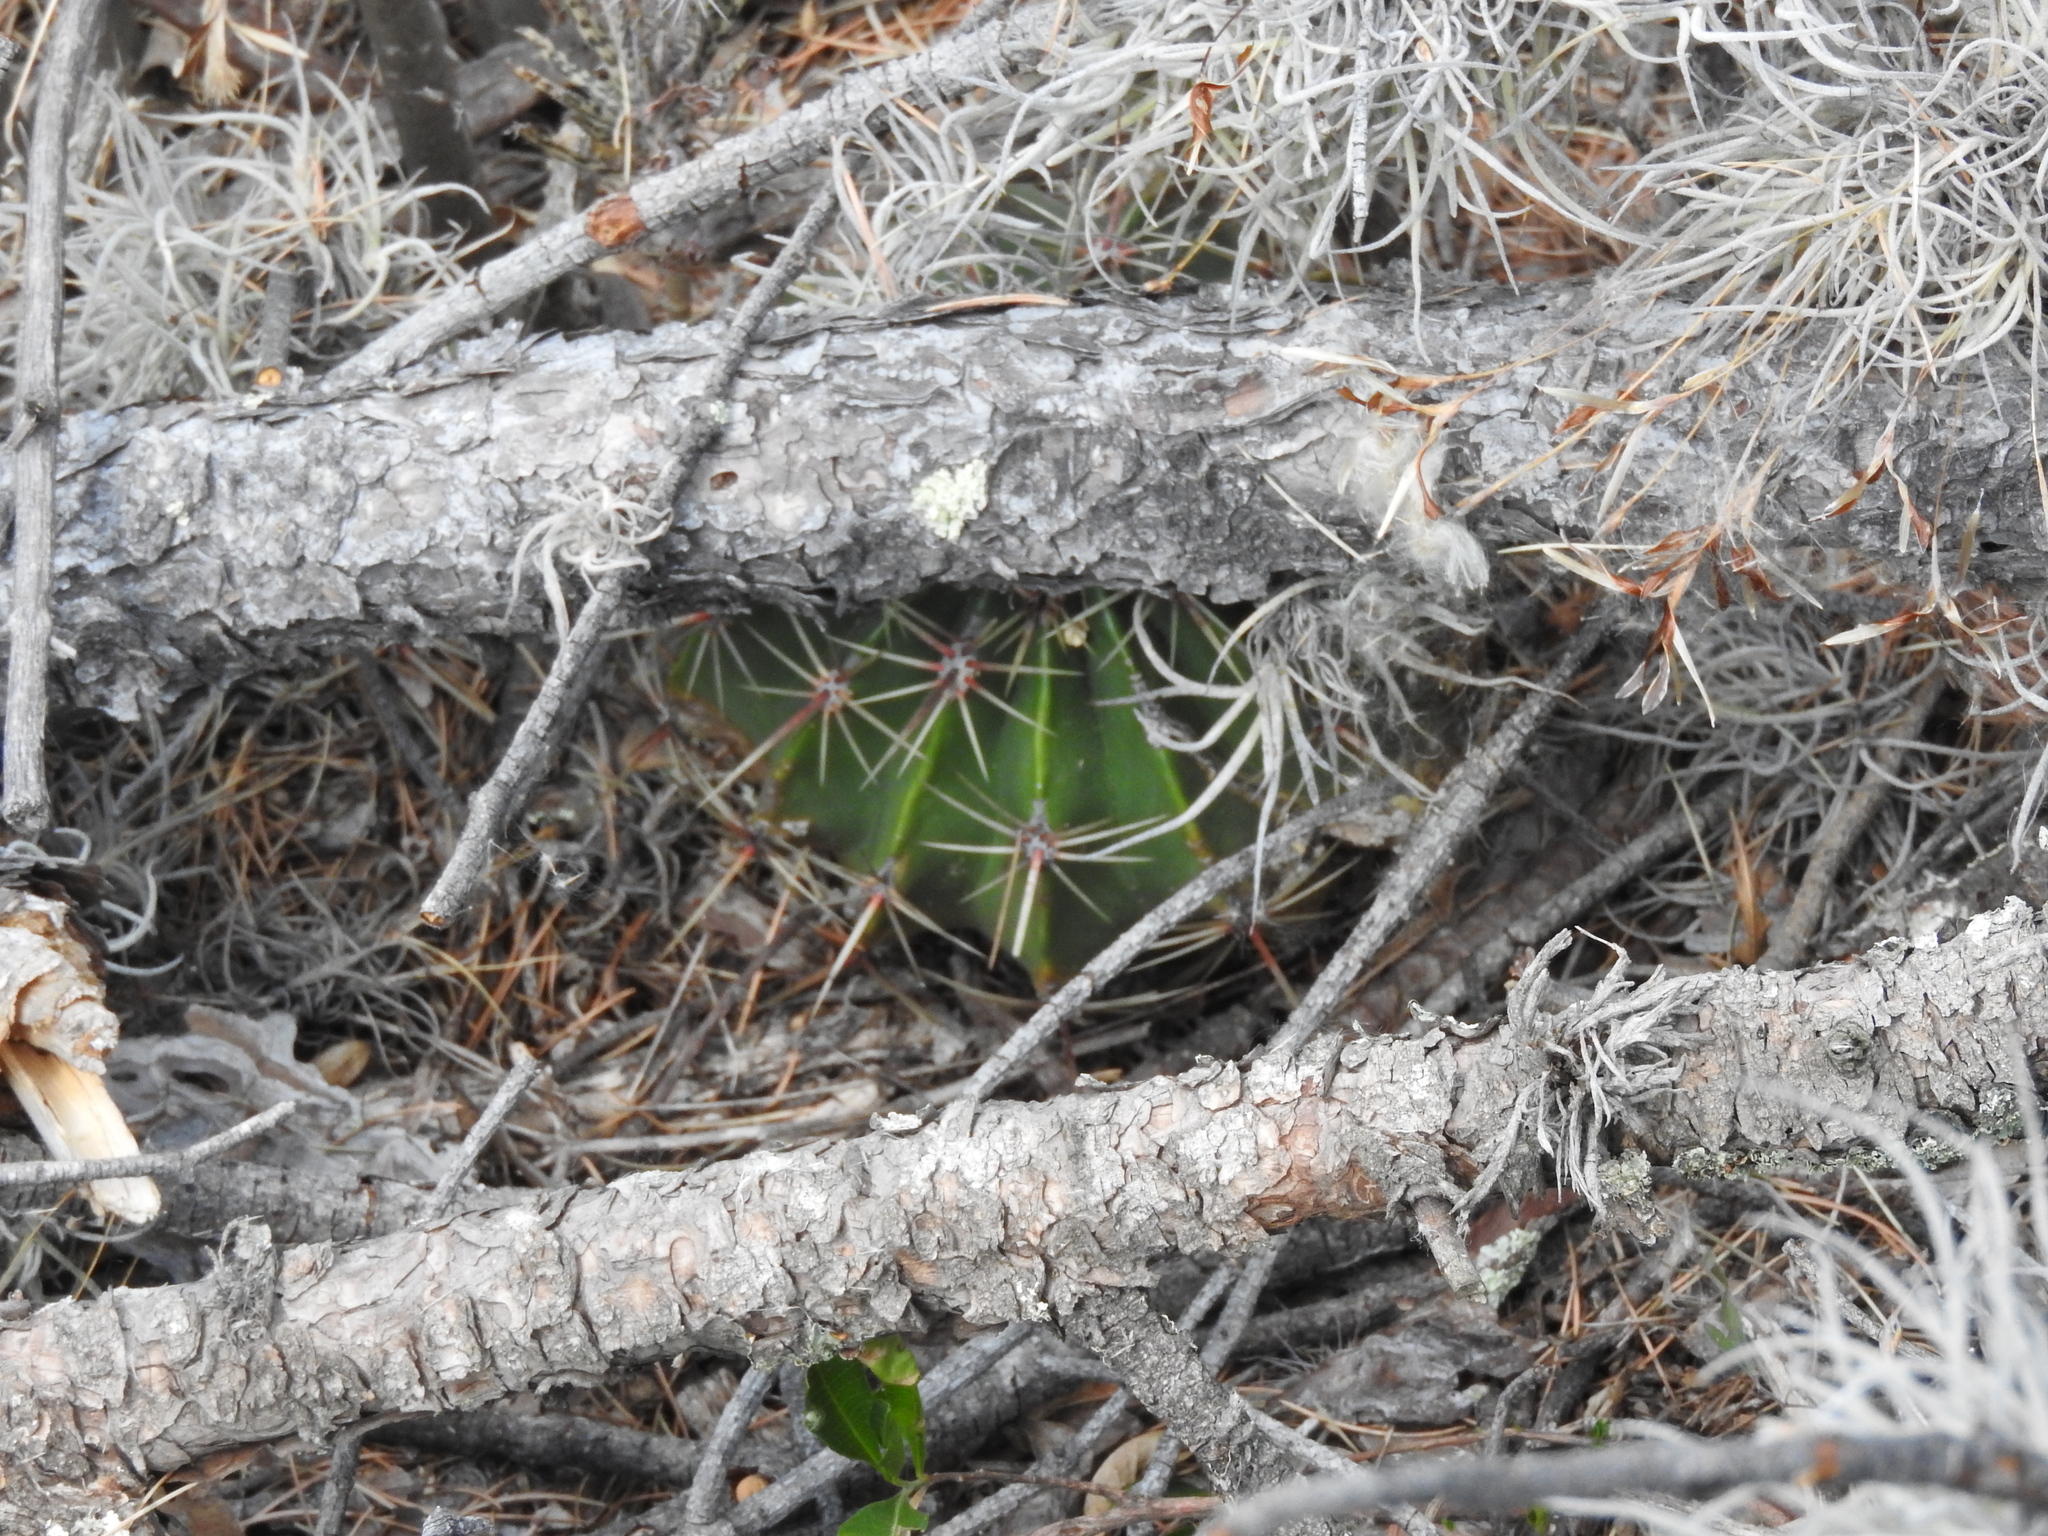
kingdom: Plantae
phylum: Tracheophyta
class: Magnoliopsida
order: Caryophyllales
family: Cactaceae
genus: Bisnaga
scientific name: Bisnaga histrix
